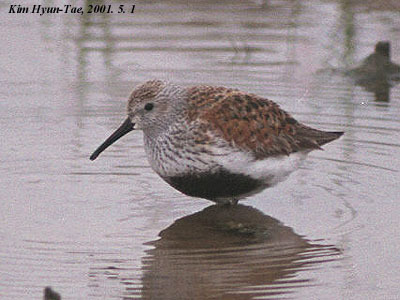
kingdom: Animalia
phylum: Chordata
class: Aves
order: Charadriiformes
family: Scolopacidae
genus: Calidris
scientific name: Calidris alpina
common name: Dunlin
